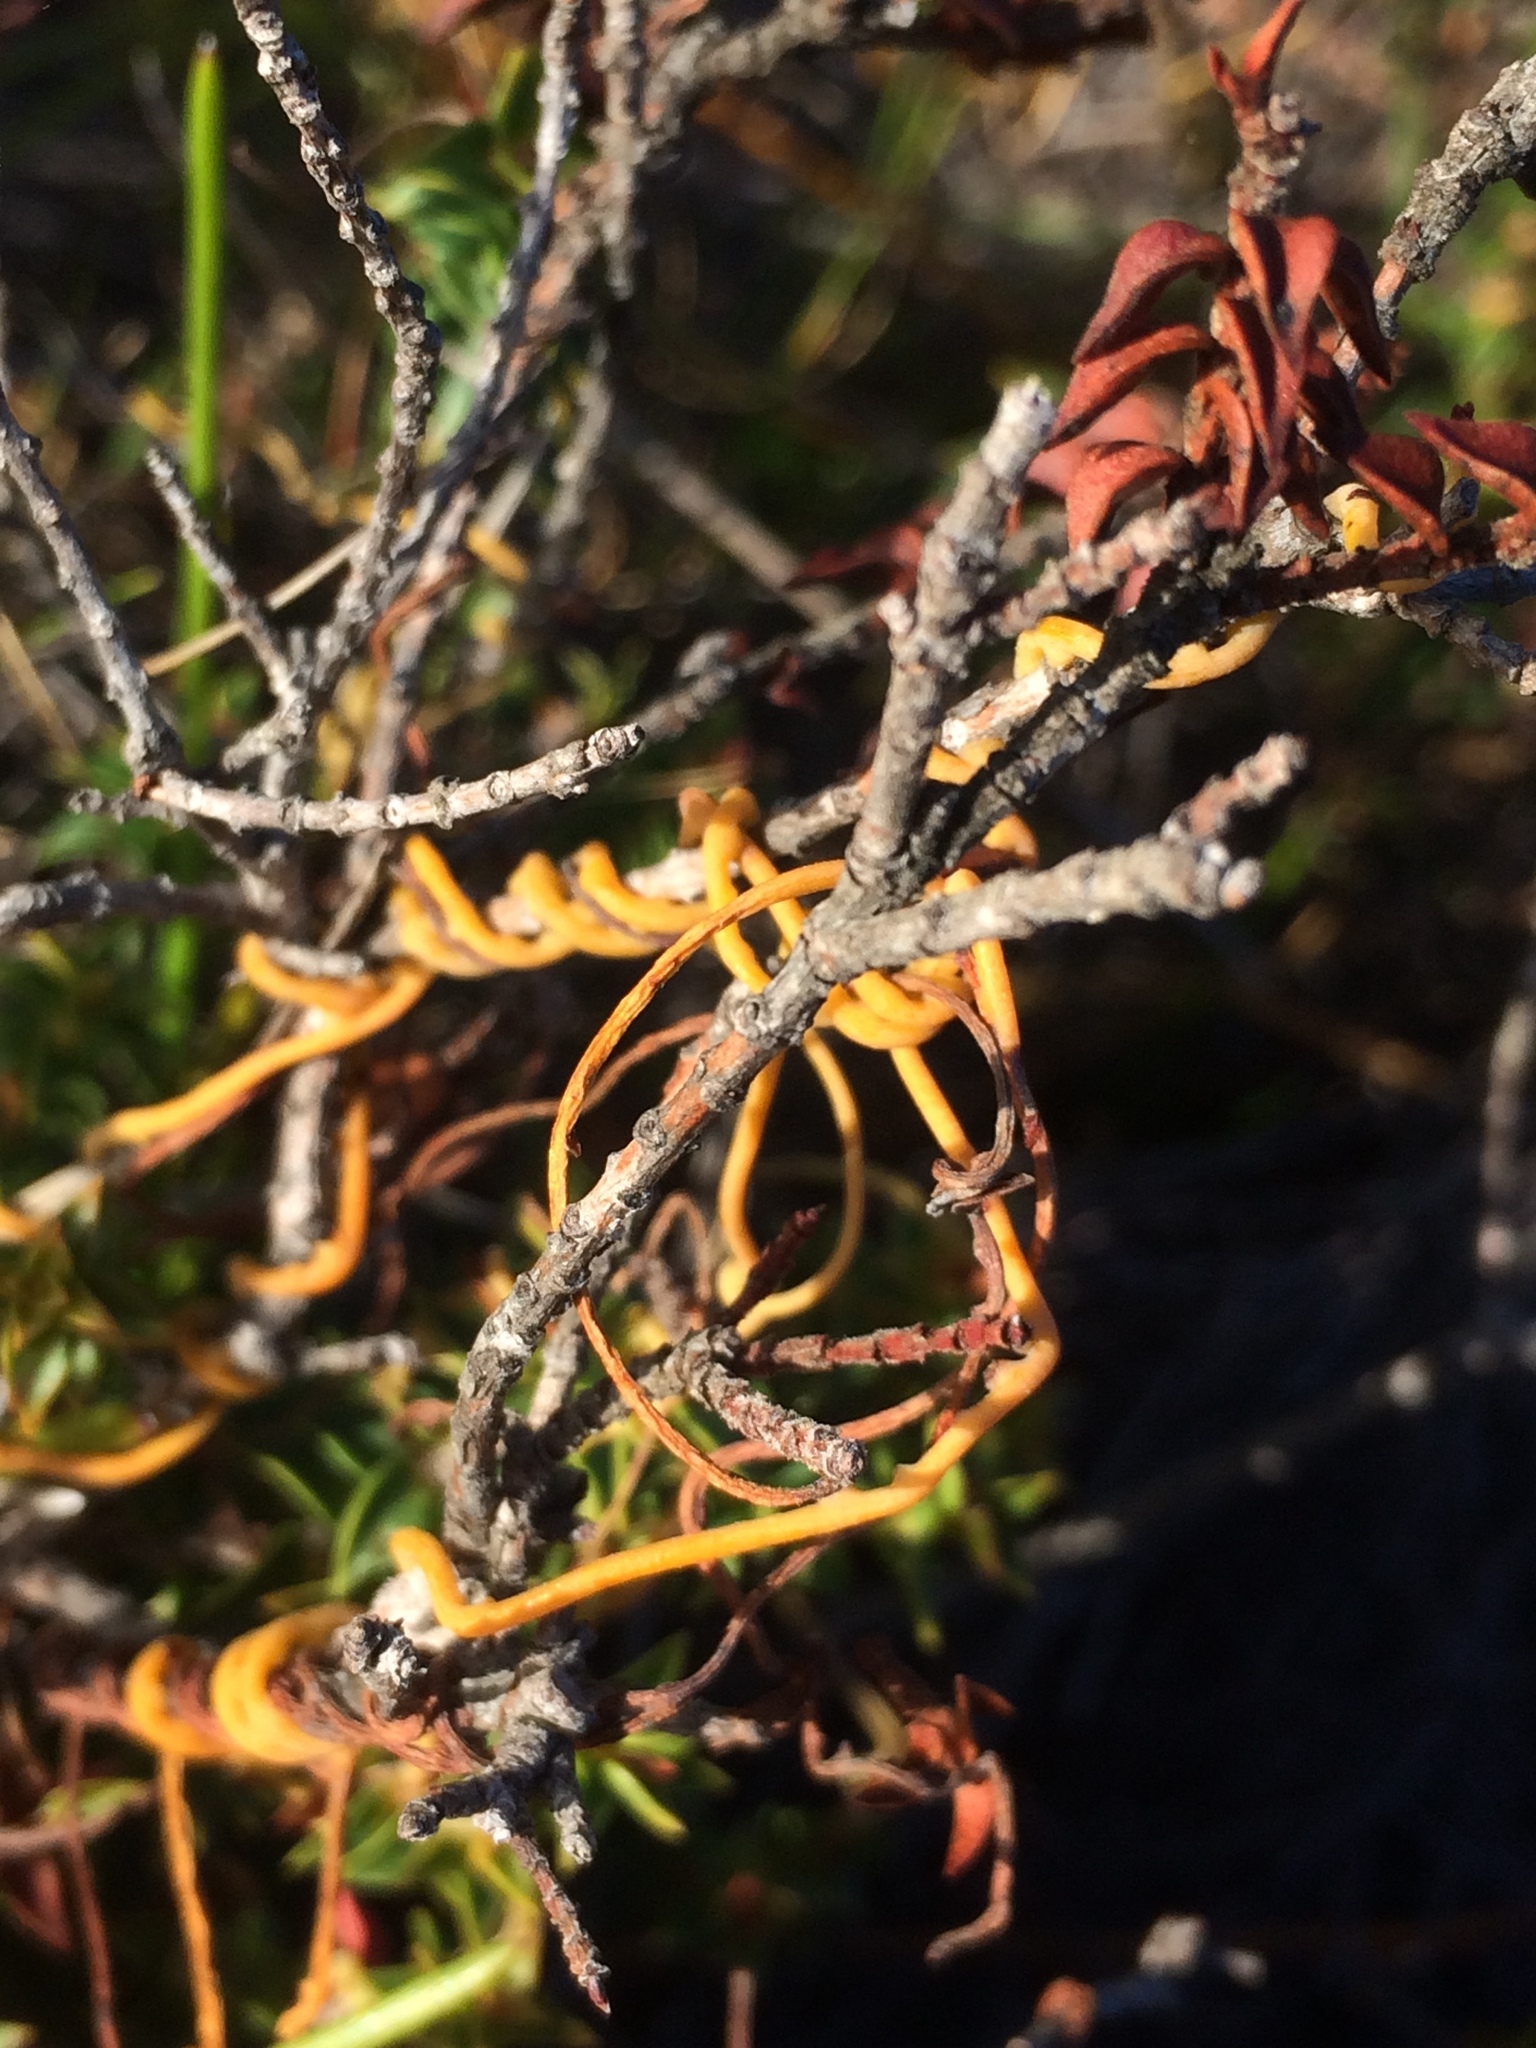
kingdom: Plantae
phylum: Tracheophyta
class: Magnoliopsida
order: Laurales
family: Lauraceae
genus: Cassytha
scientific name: Cassytha ciliolata
